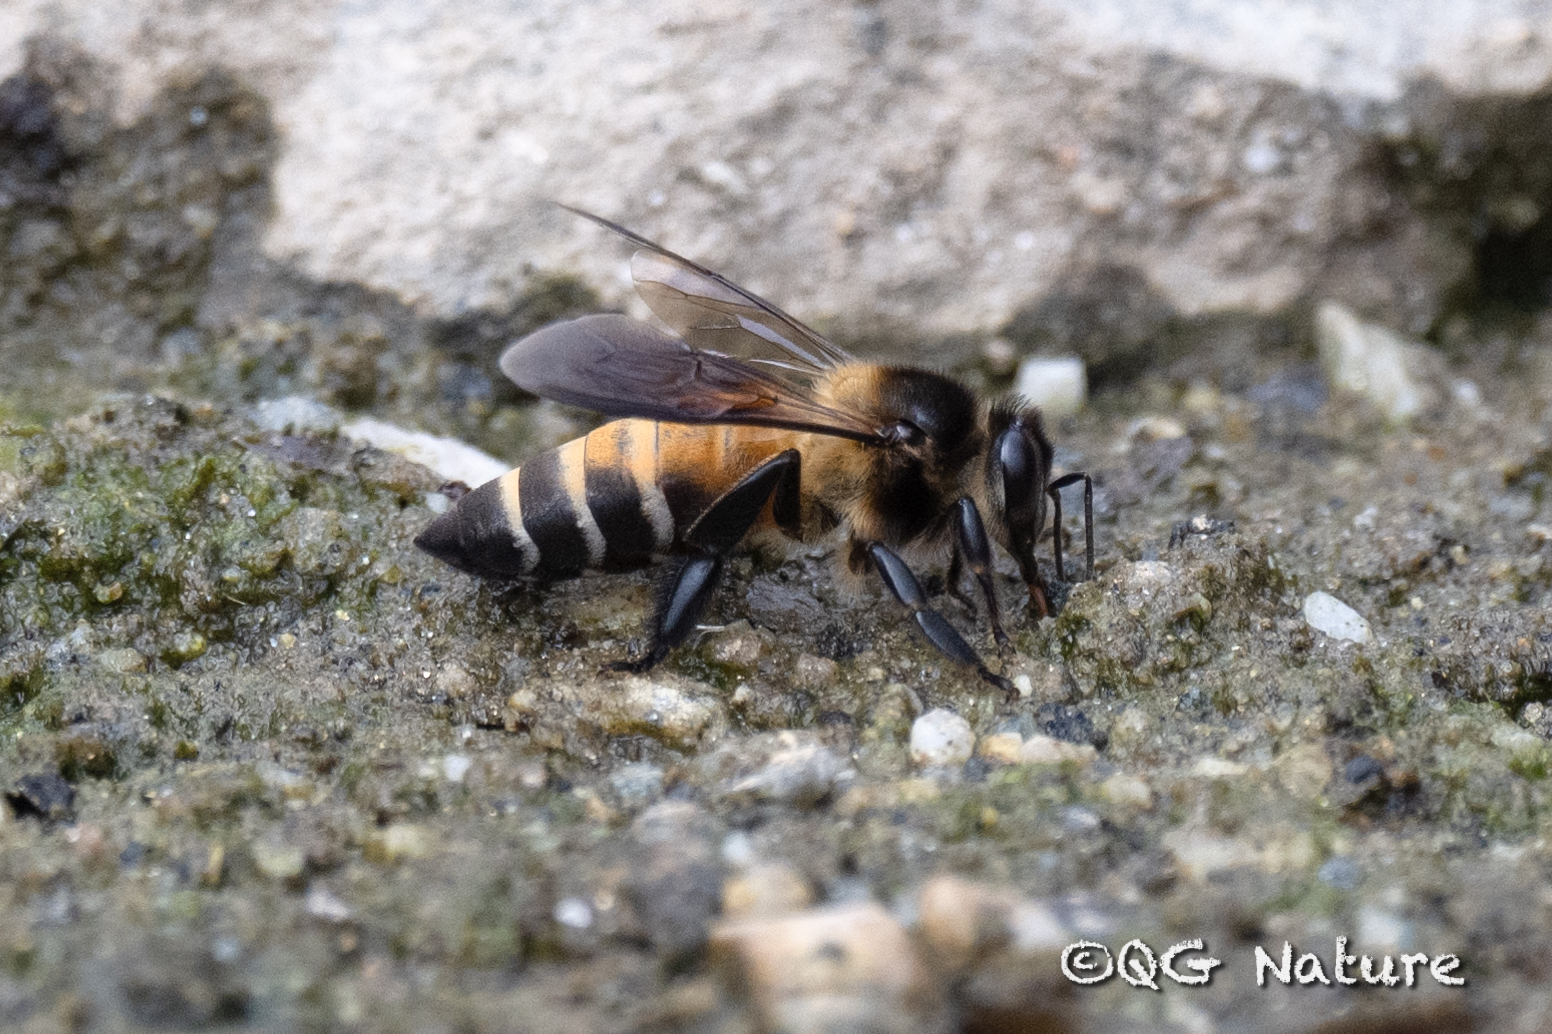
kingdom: Animalia
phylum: Arthropoda
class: Insecta
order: Hymenoptera
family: Apidae
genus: Apis
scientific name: Apis dorsata
